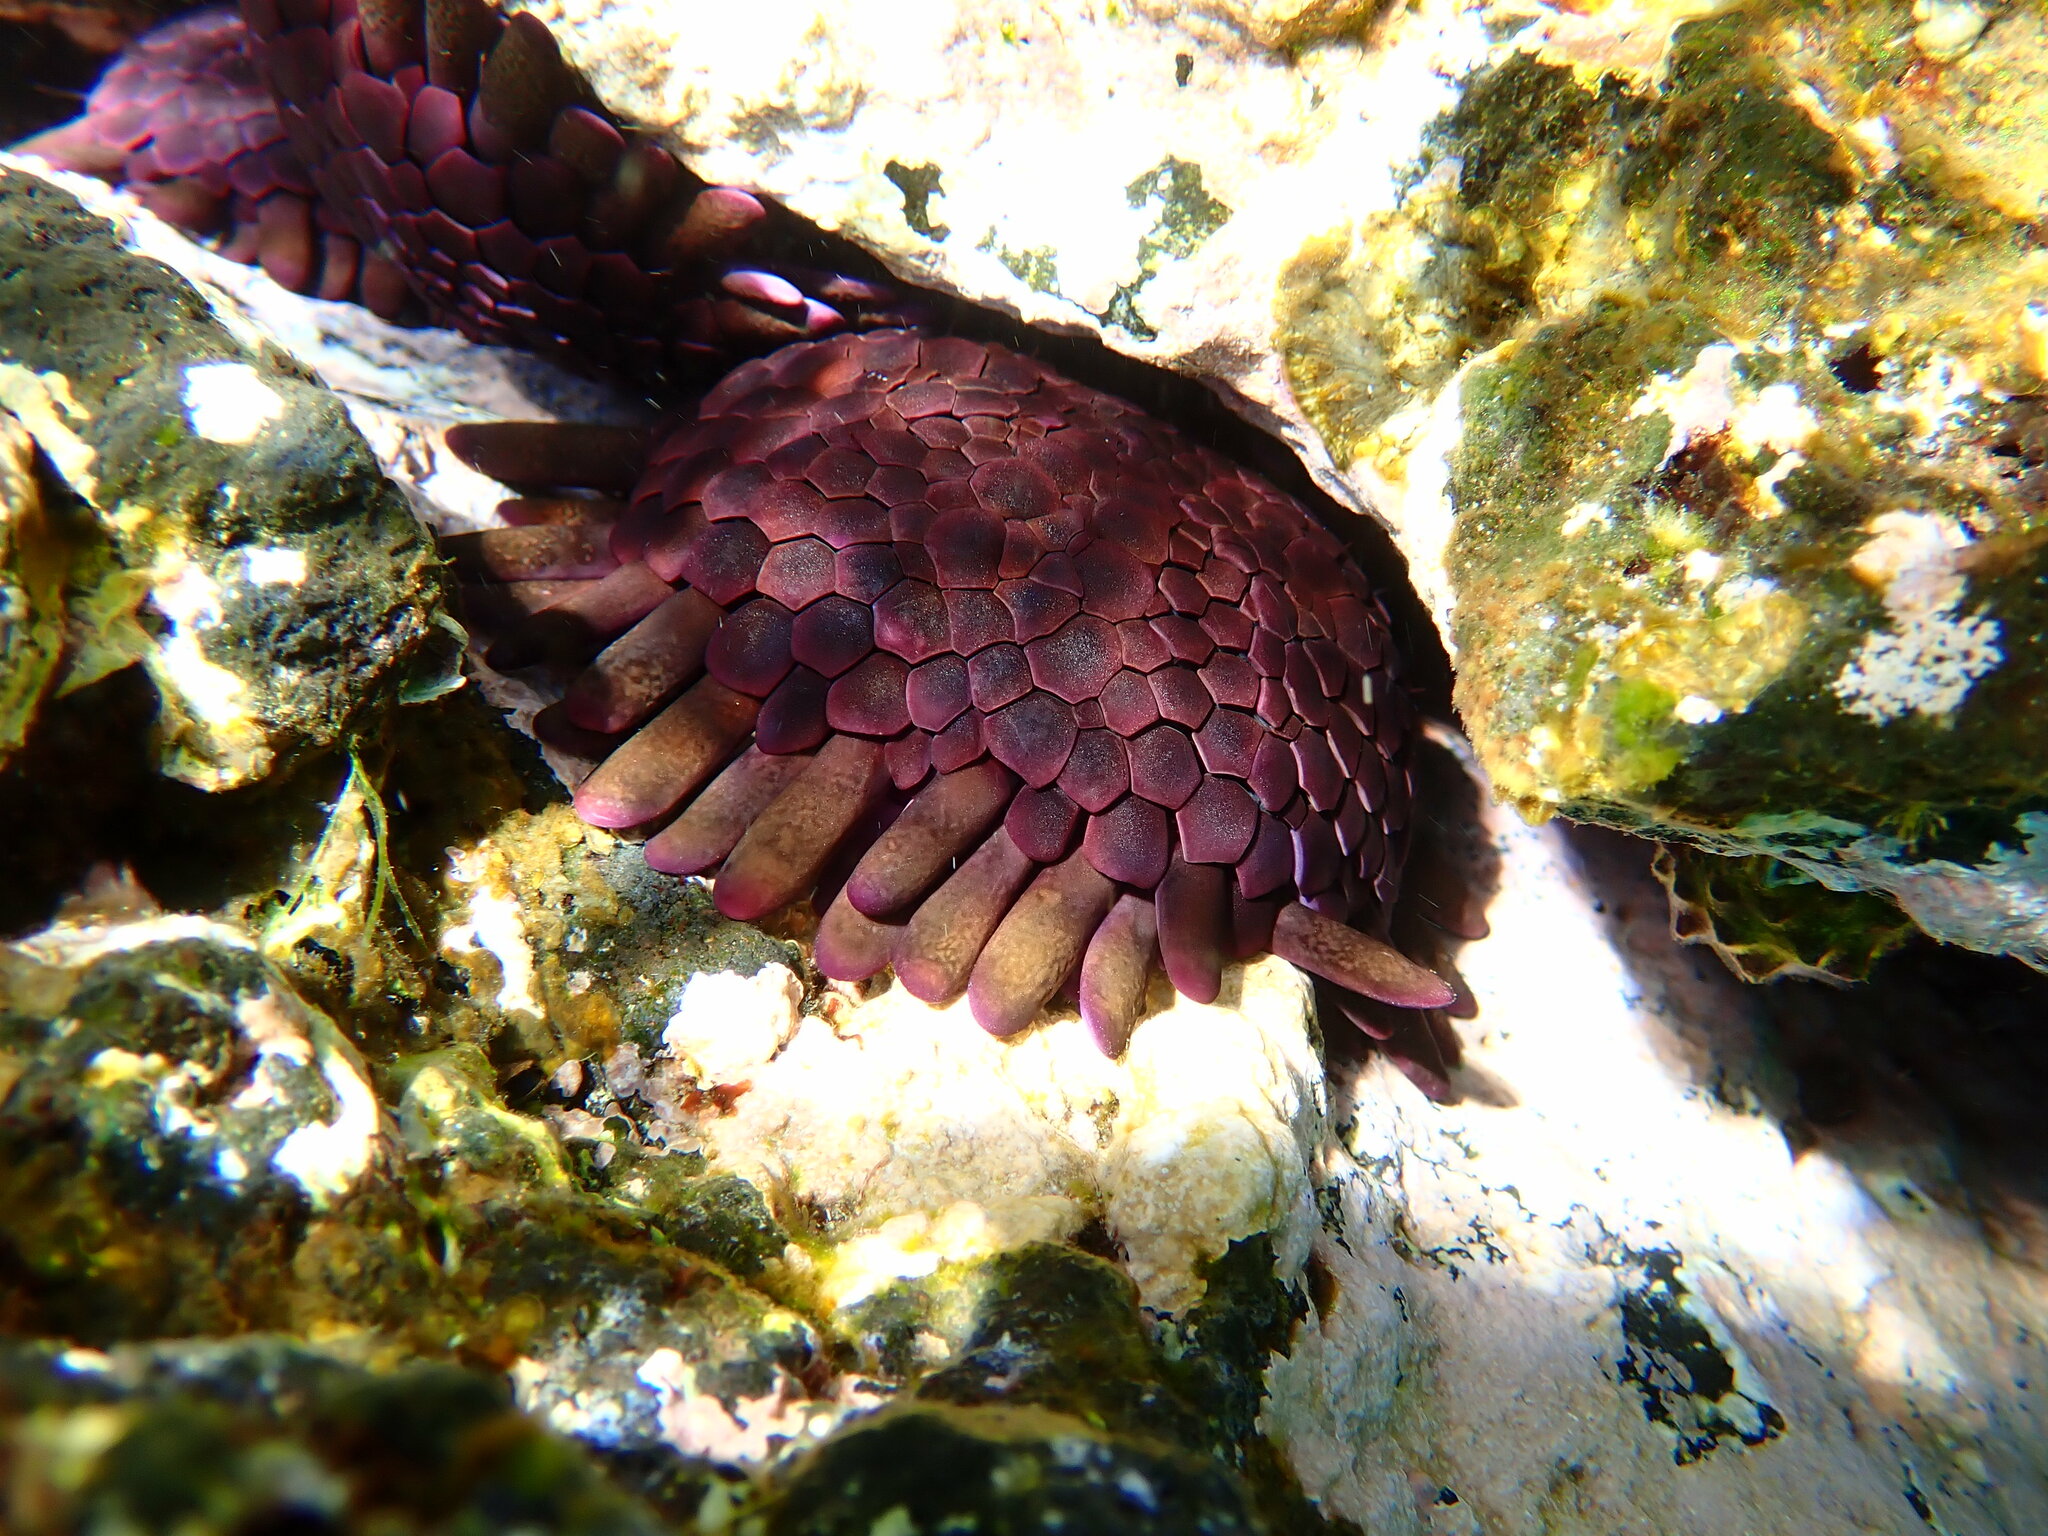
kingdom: Animalia
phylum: Echinodermata
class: Echinoidea
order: Camarodonta
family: Echinometridae
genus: Colobocentrotus
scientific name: Colobocentrotus atratus
